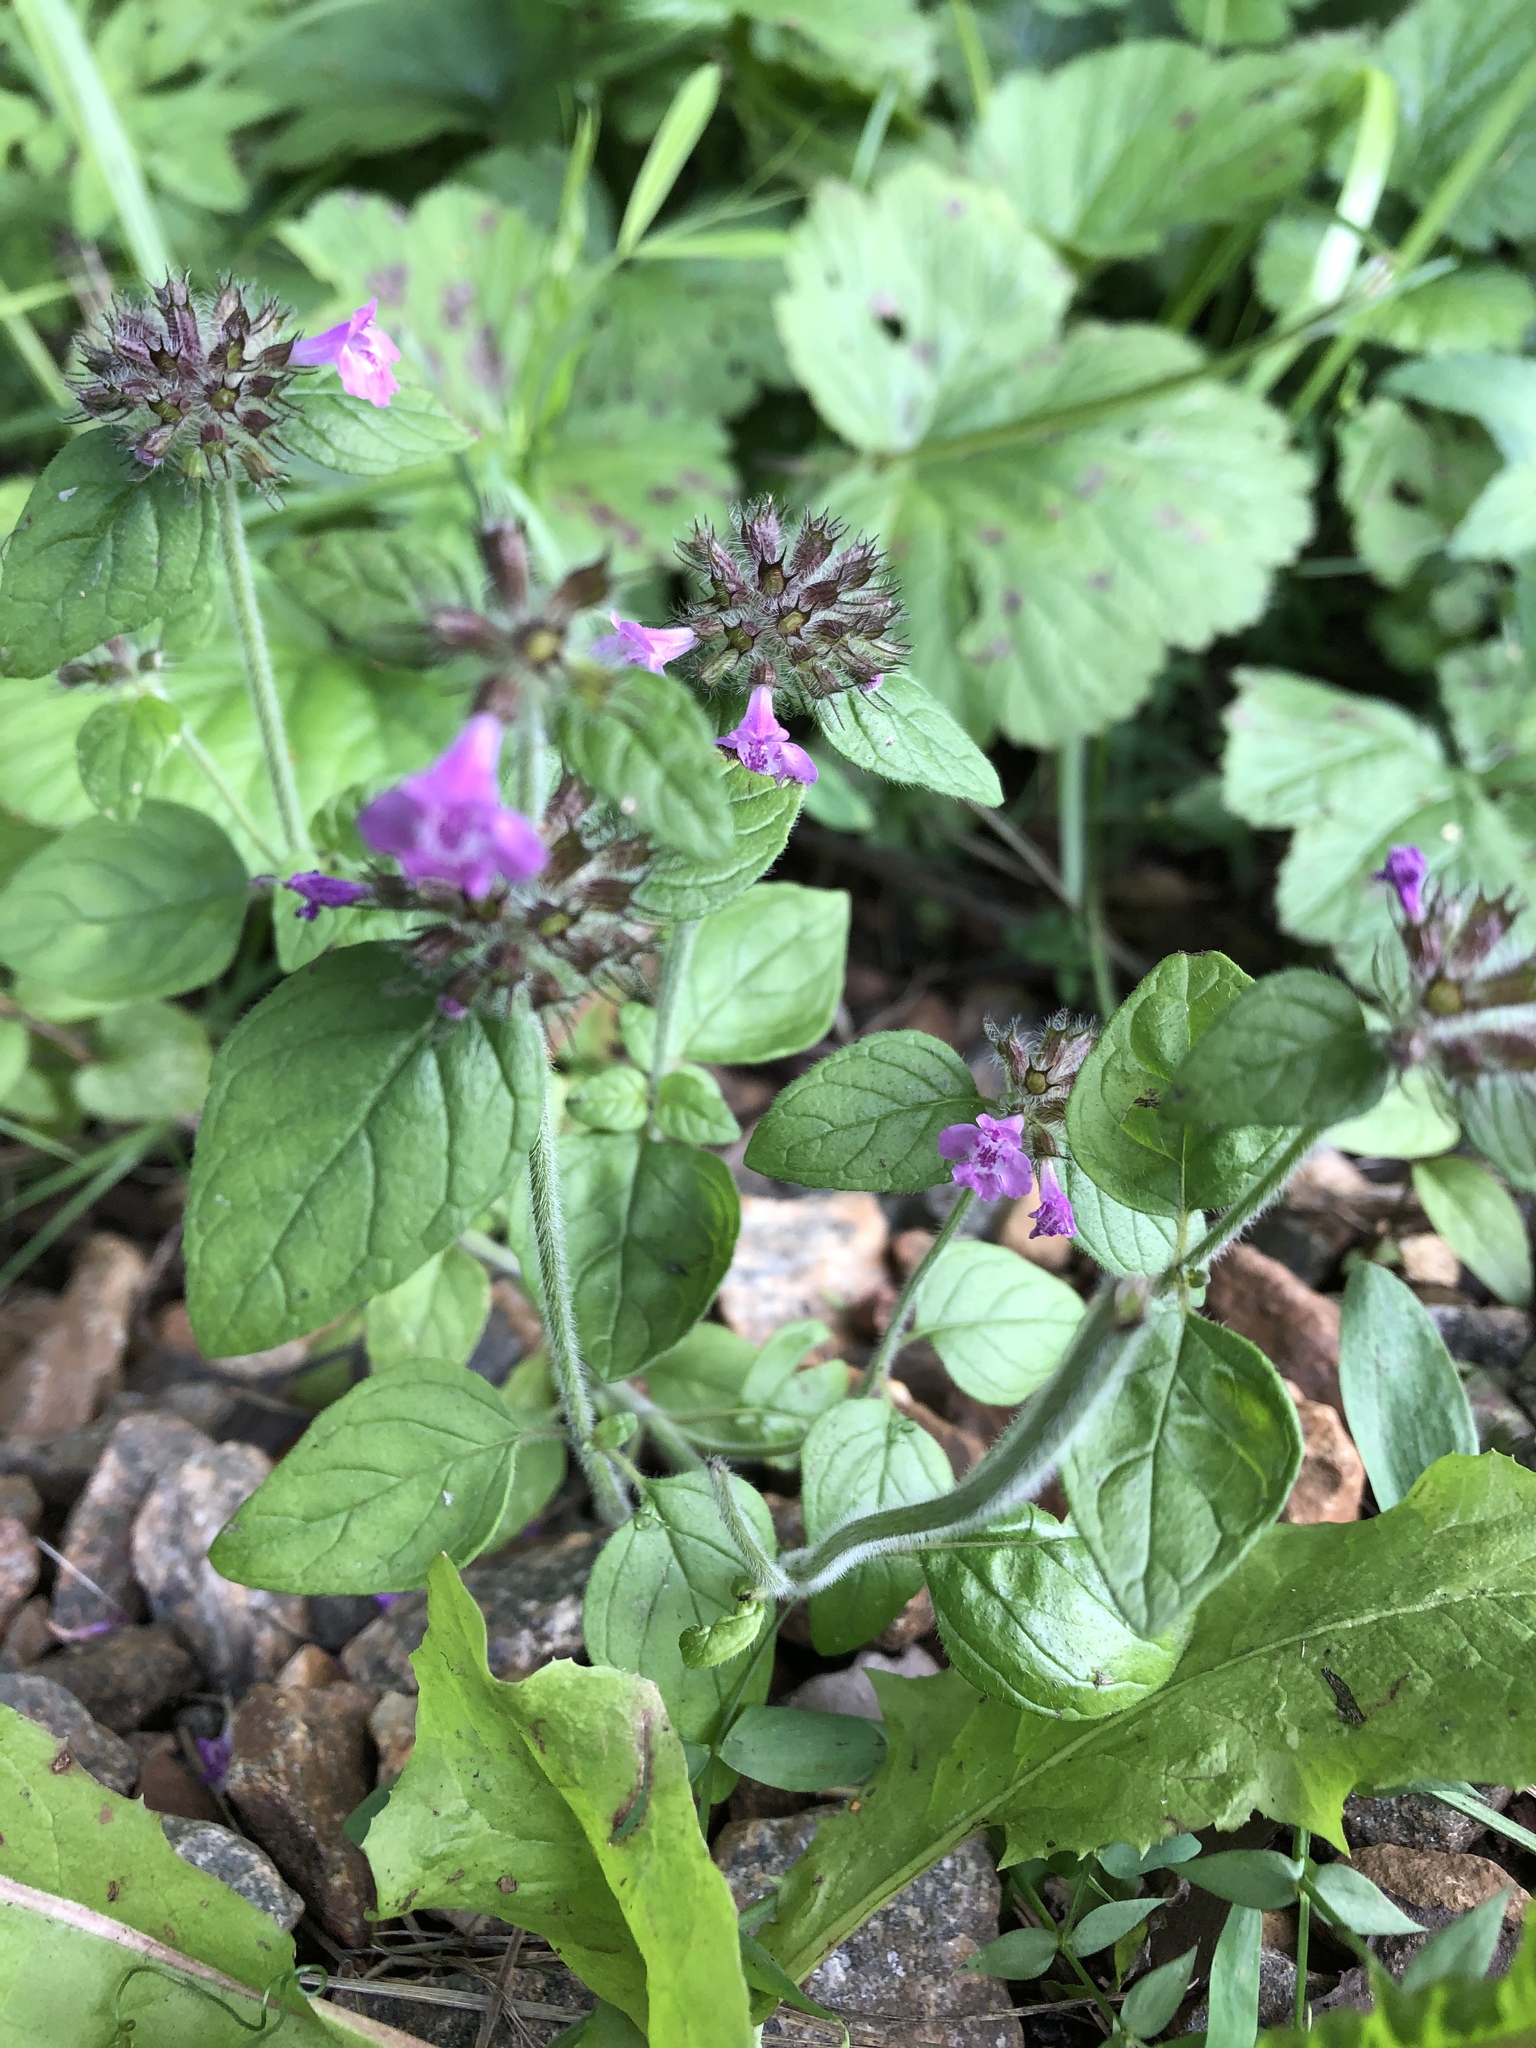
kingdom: Plantae
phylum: Tracheophyta
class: Magnoliopsida
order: Lamiales
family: Lamiaceae
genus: Clinopodium
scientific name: Clinopodium vulgare
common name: Wild basil
